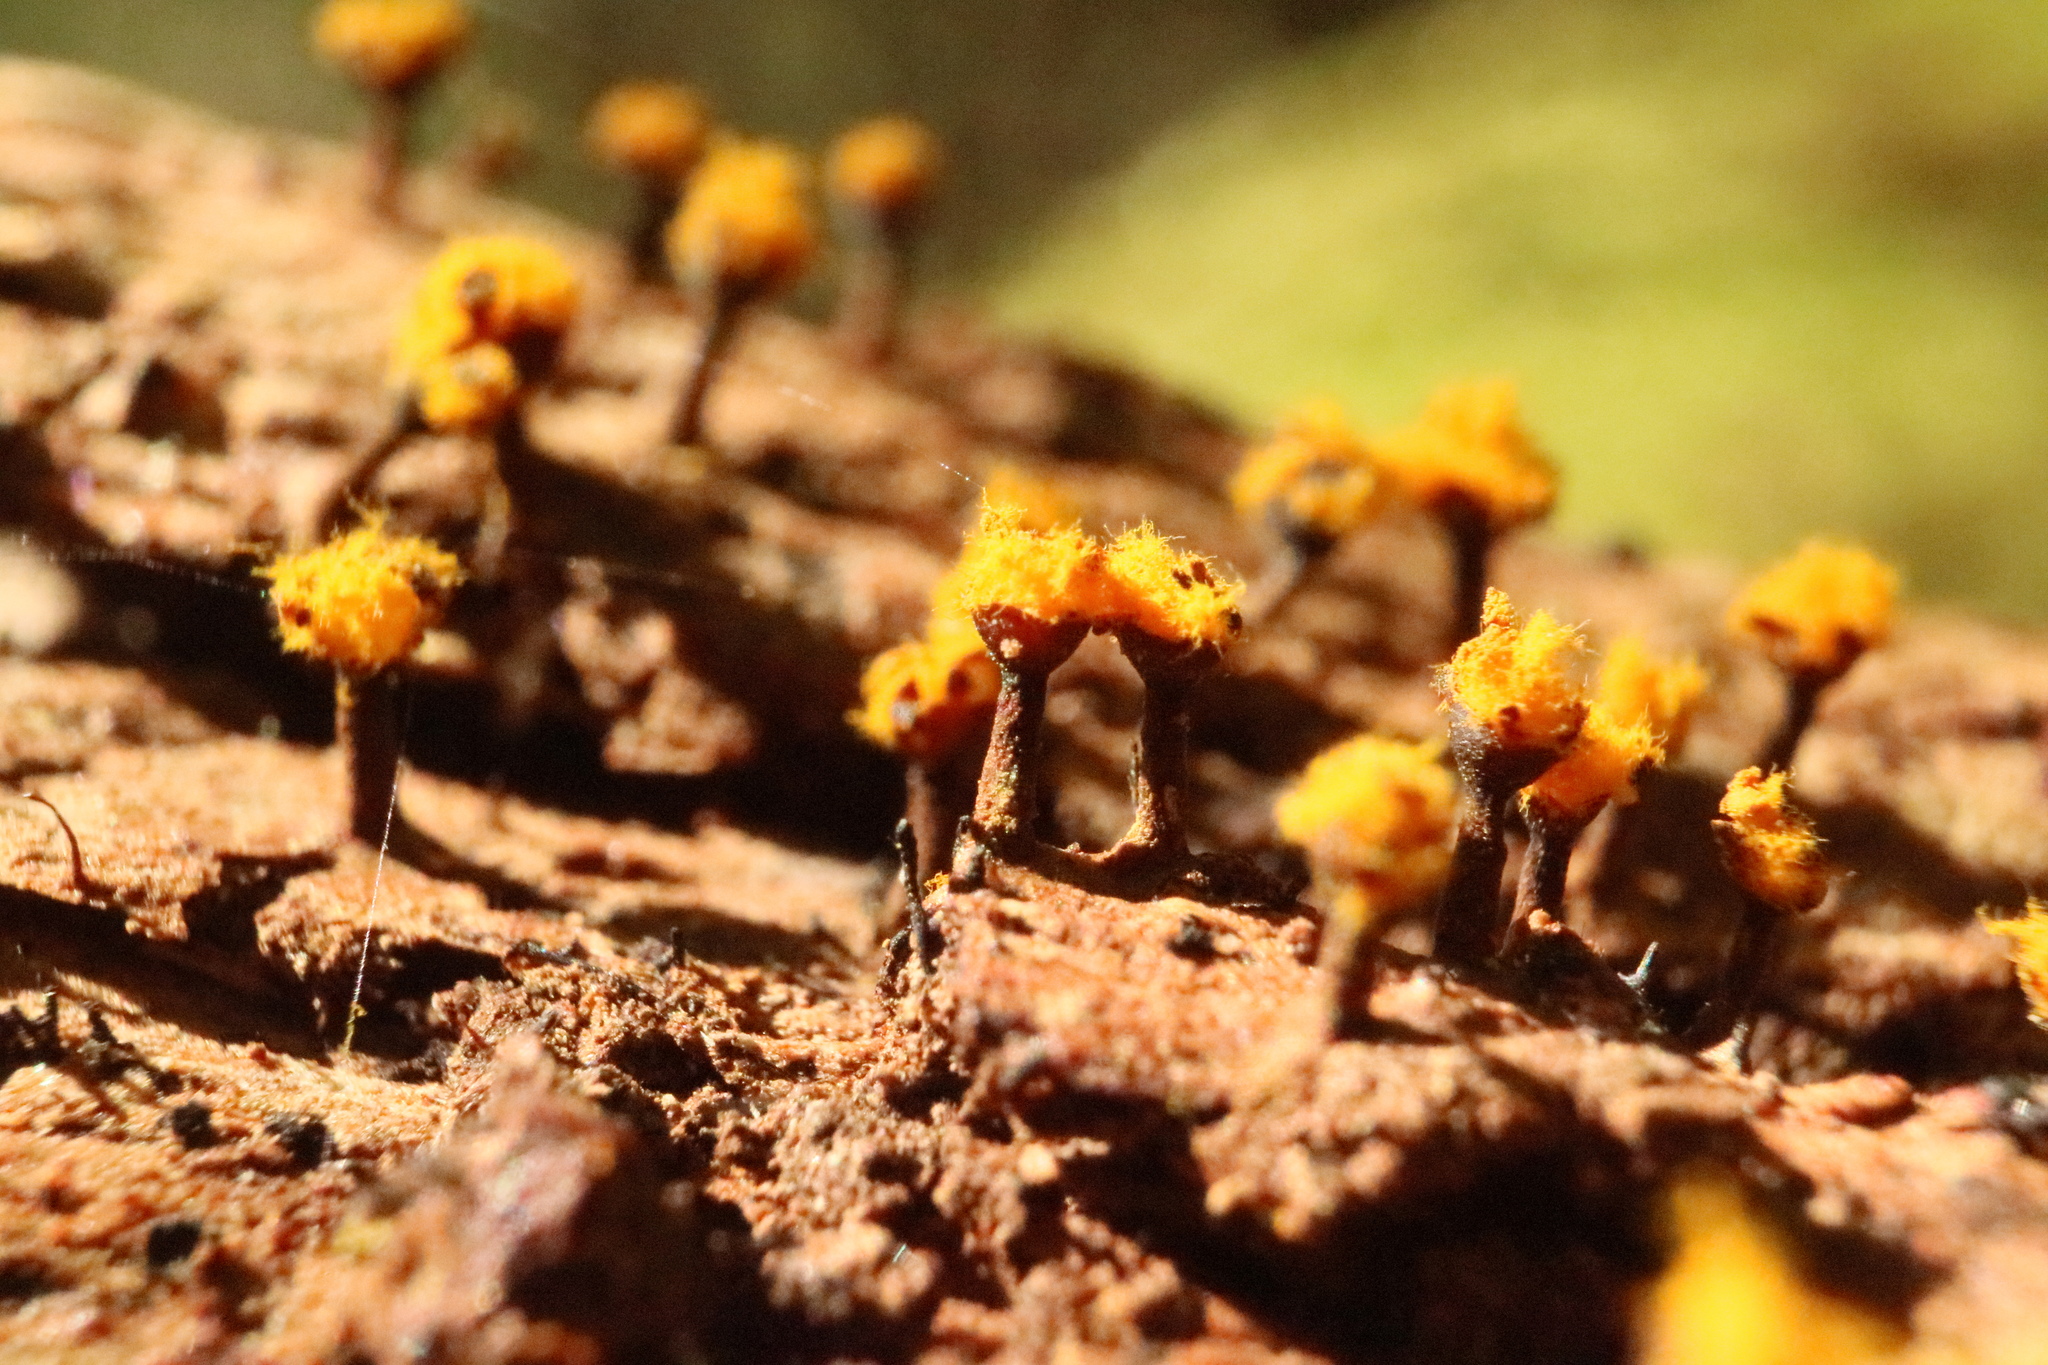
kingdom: Protozoa
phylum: Mycetozoa
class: Myxomycetes
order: Trichiales
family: Trichiaceae
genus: Trichia
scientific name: Trichia erecta
